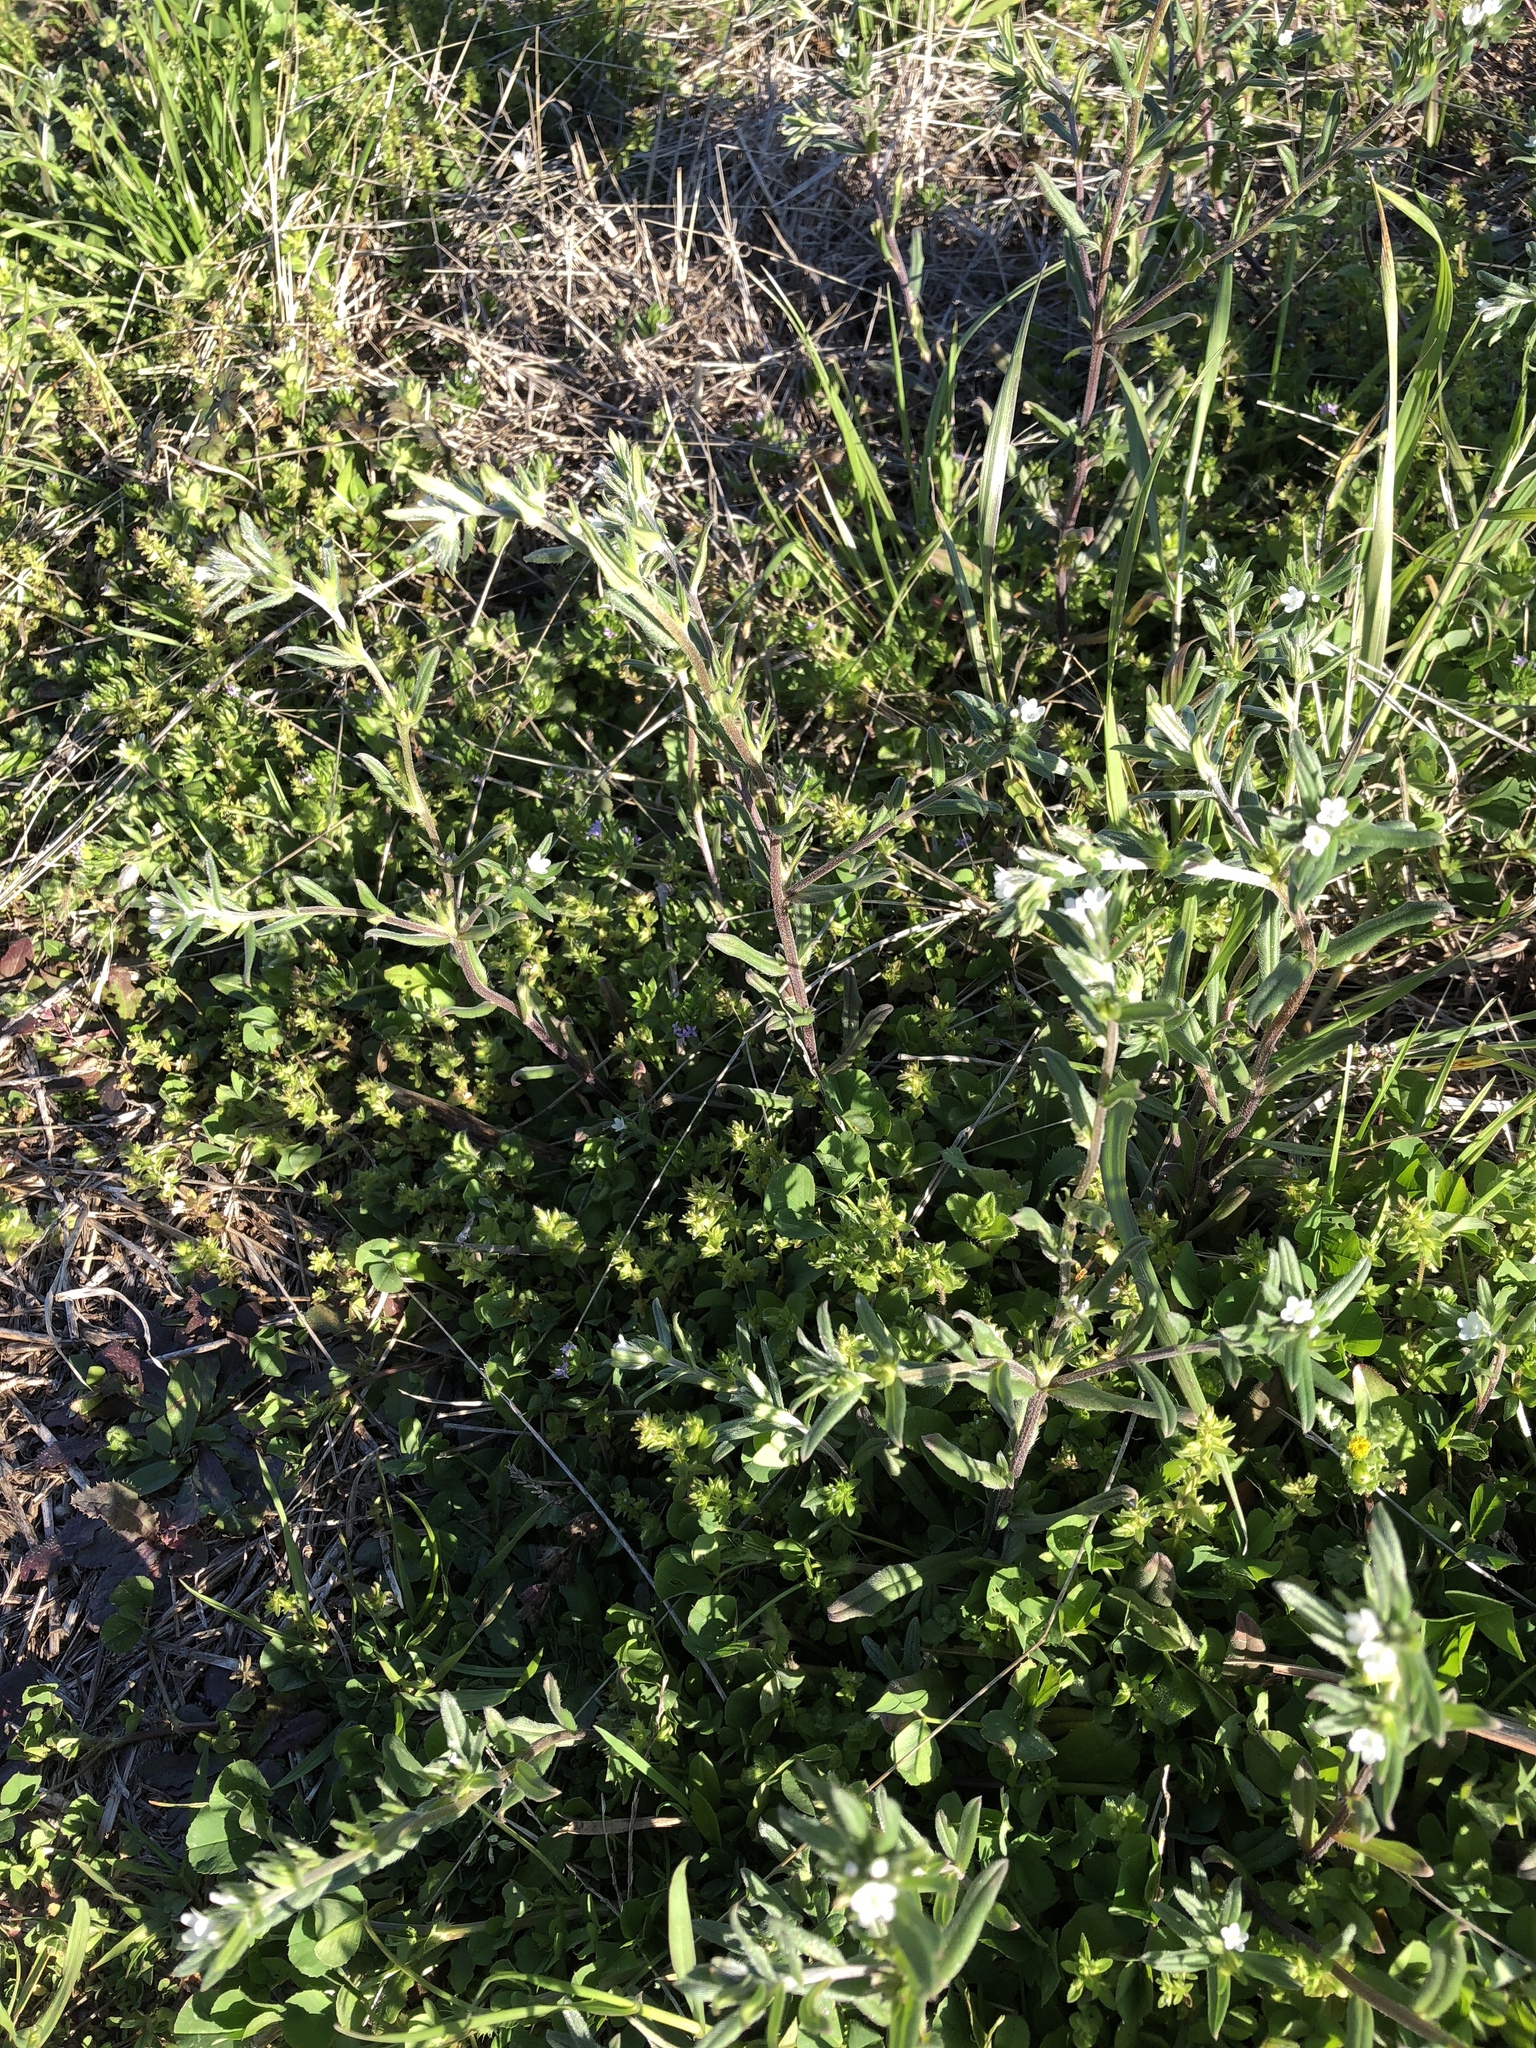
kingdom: Plantae
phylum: Tracheophyta
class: Magnoliopsida
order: Boraginales
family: Boraginaceae
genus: Buglossoides
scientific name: Buglossoides arvensis
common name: Corn gromwell
